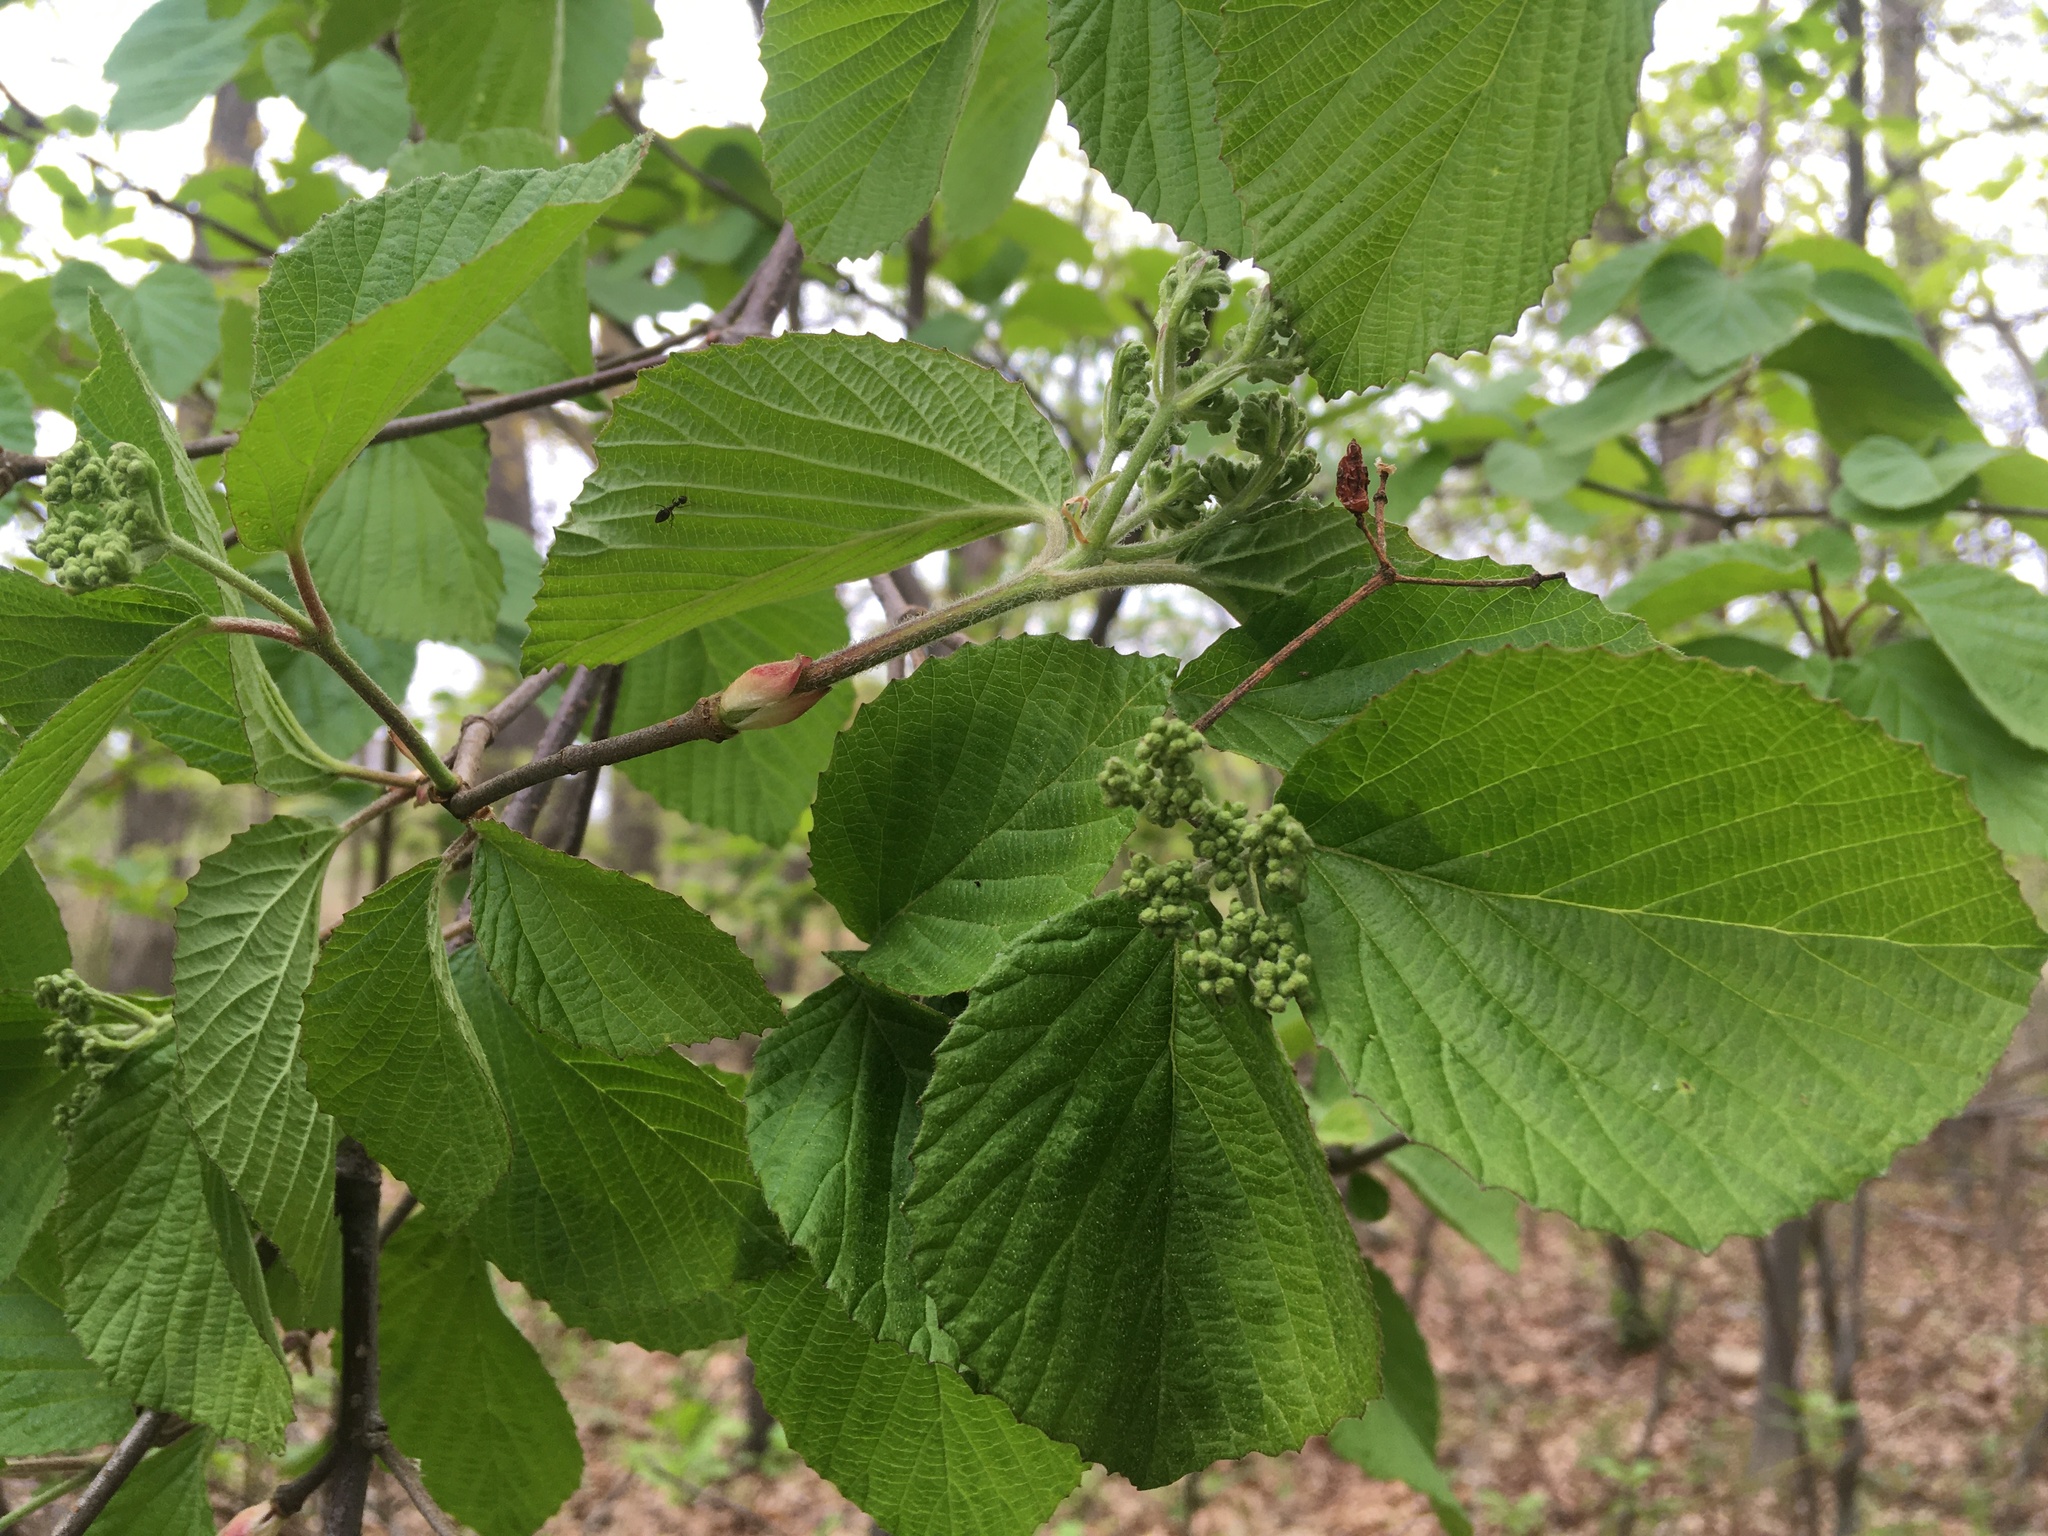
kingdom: Plantae
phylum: Tracheophyta
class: Magnoliopsida
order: Dipsacales
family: Viburnaceae
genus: Viburnum
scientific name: Viburnum dilatatum
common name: Linden arrowwood
